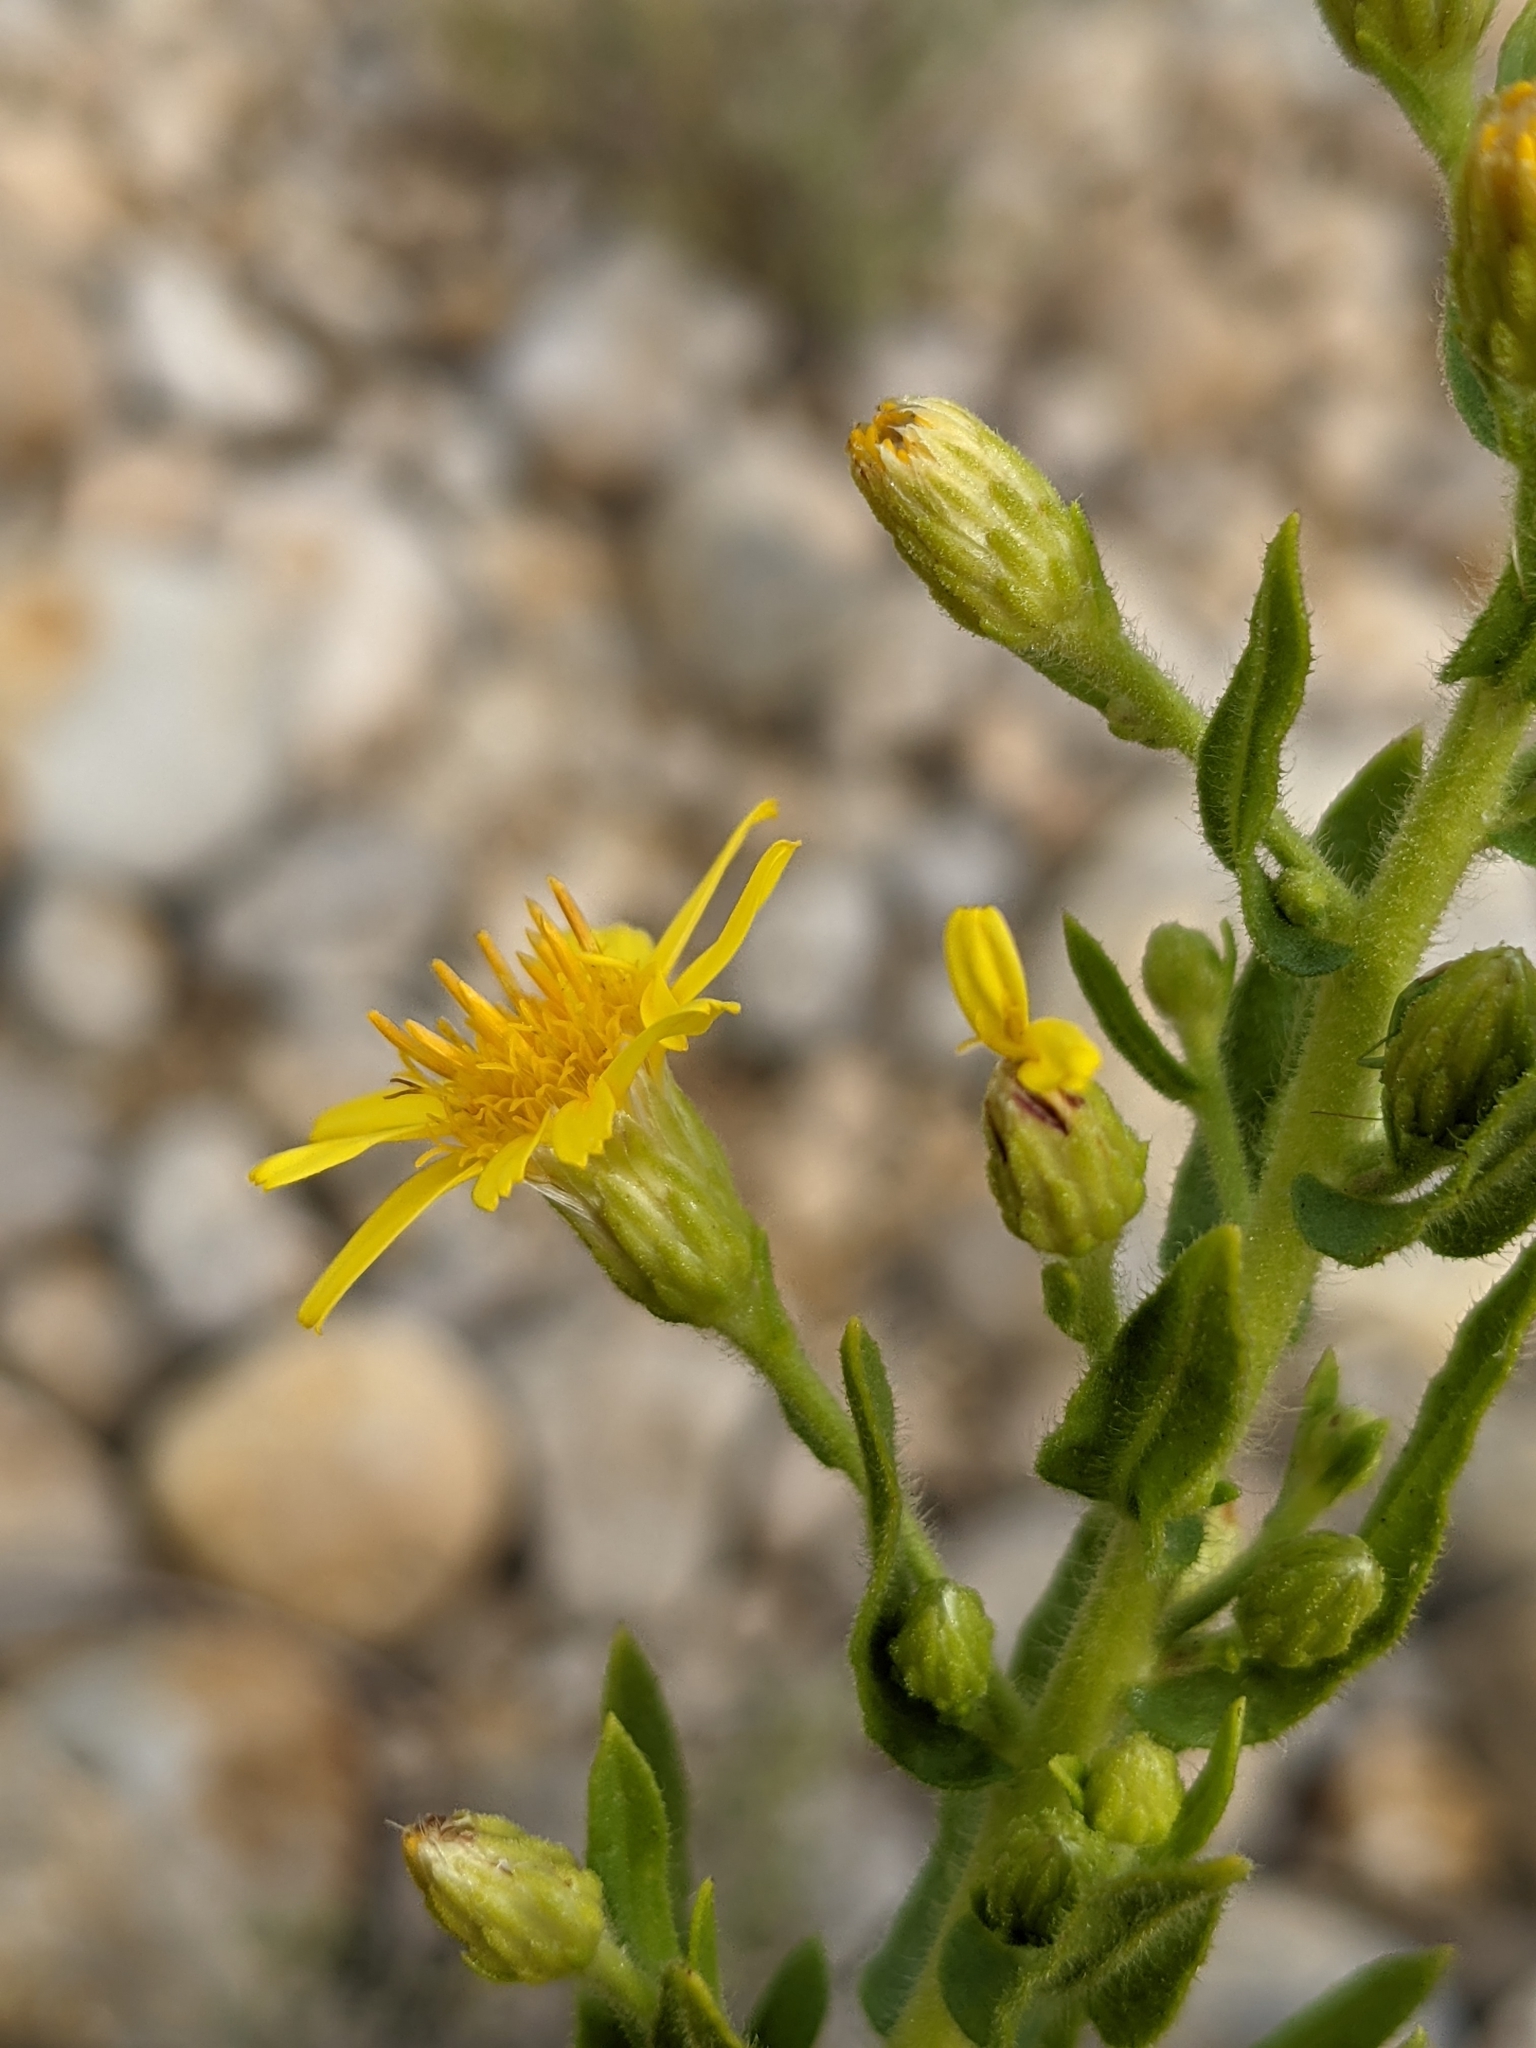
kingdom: Plantae
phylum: Tracheophyta
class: Magnoliopsida
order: Asterales
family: Asteraceae
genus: Dittrichia
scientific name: Dittrichia viscosa
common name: Woody fleabane
